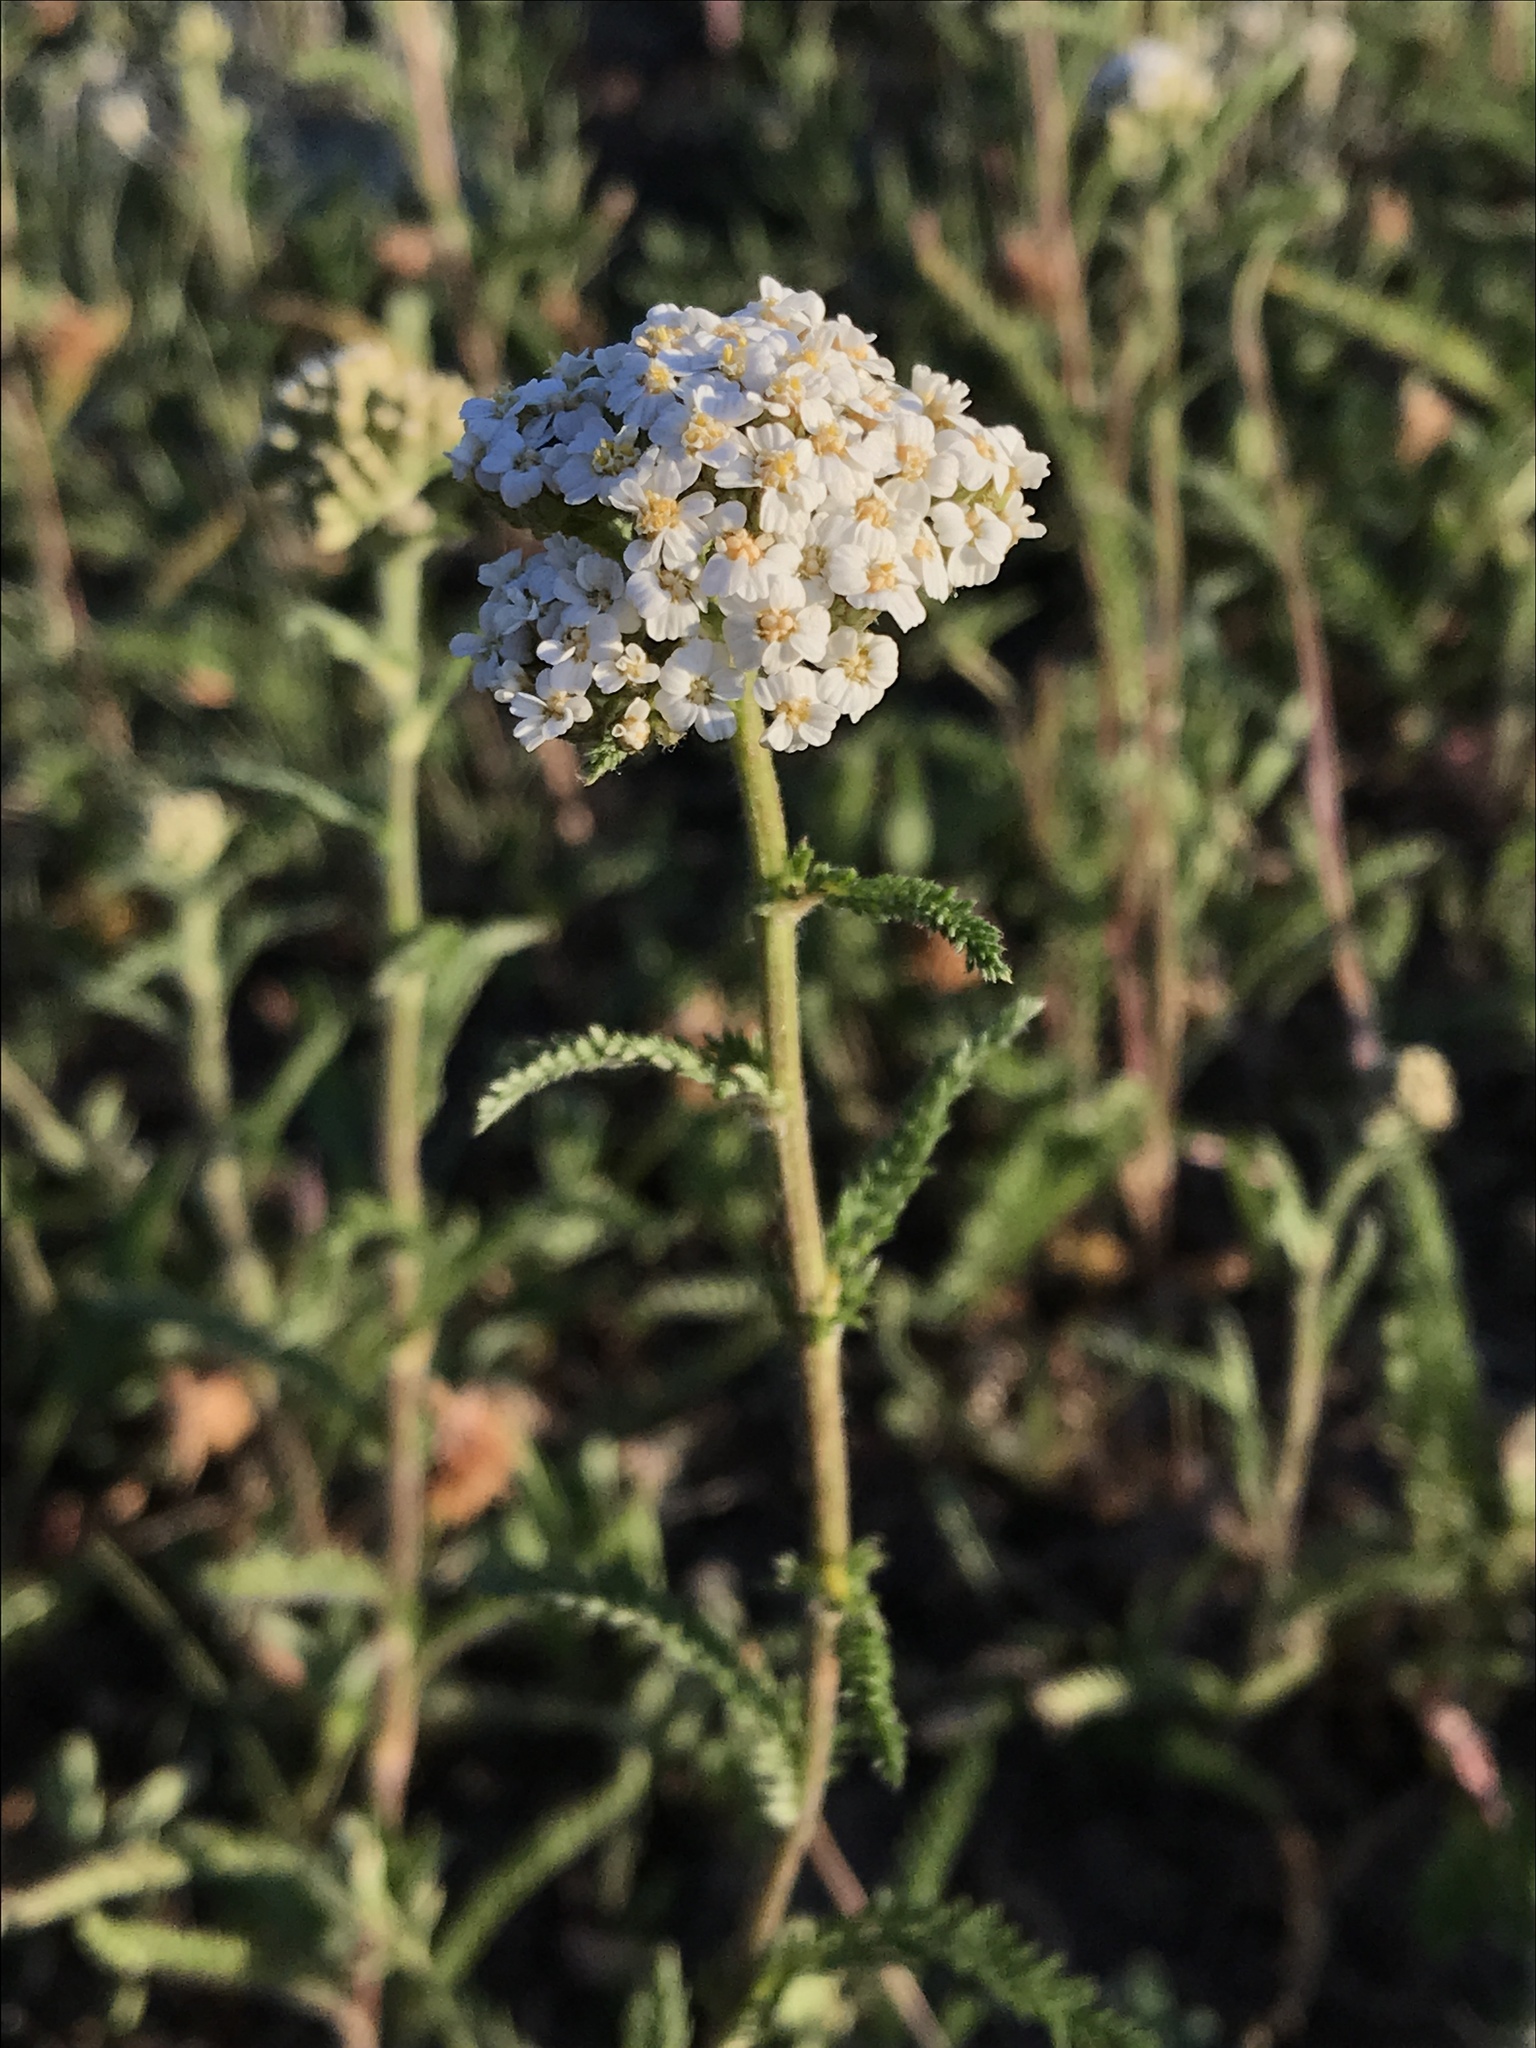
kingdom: Plantae
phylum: Tracheophyta
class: Magnoliopsida
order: Asterales
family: Asteraceae
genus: Achillea
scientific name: Achillea millefolium
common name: Yarrow
